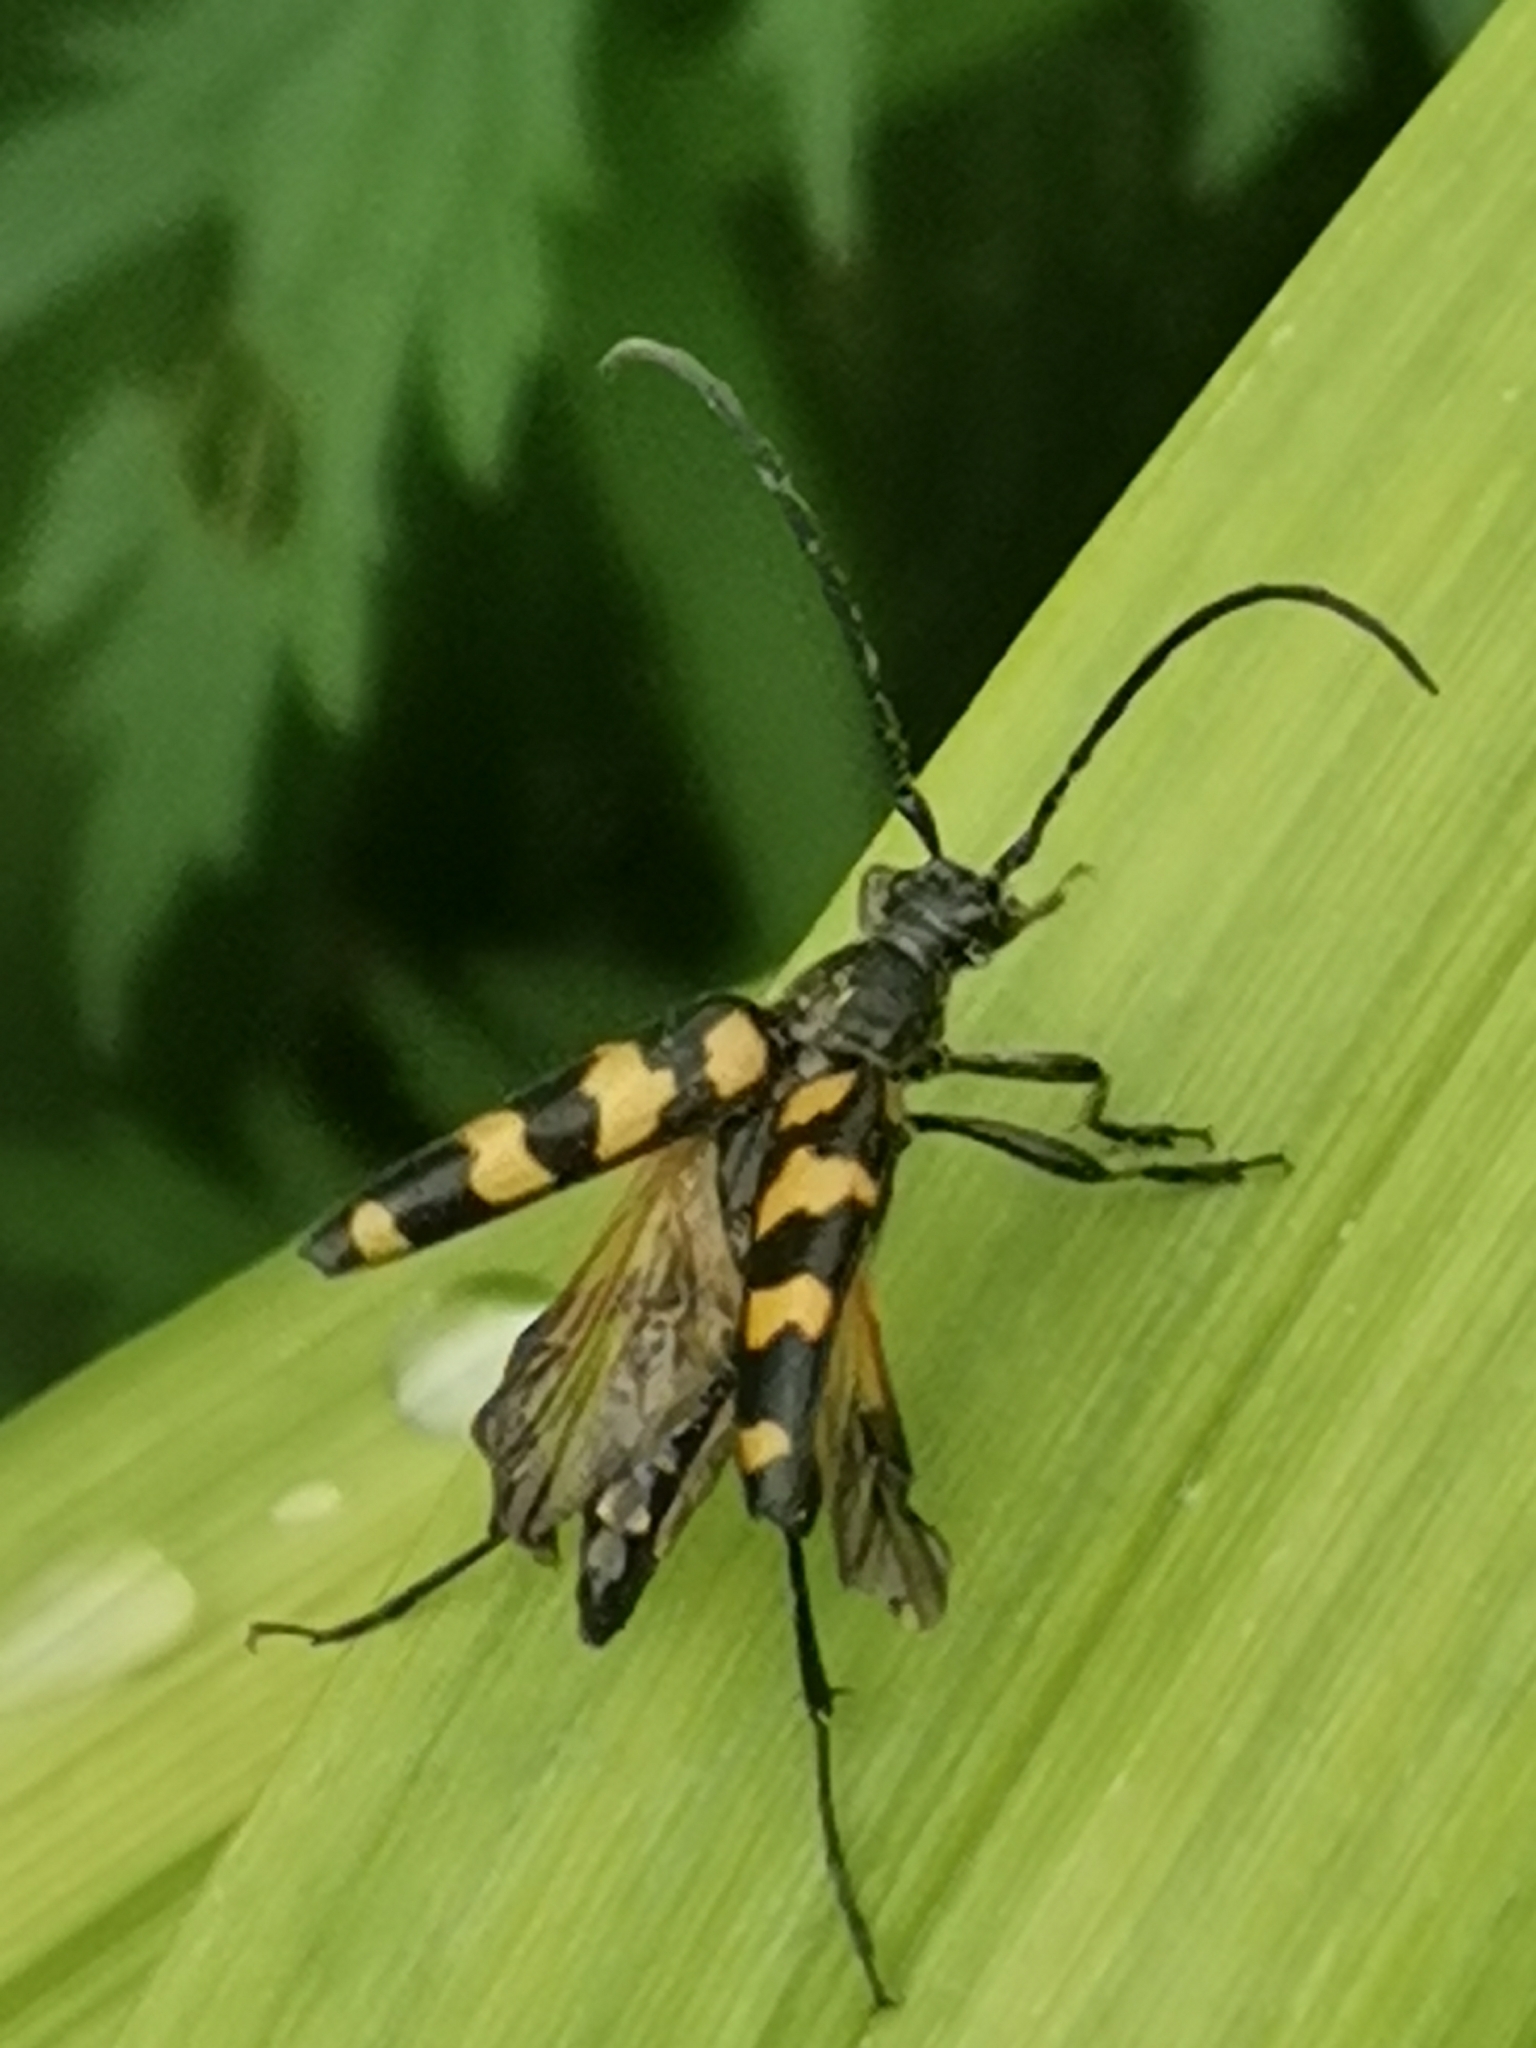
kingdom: Animalia
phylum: Arthropoda
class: Insecta
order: Coleoptera
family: Cerambycidae
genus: Leptura
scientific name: Leptura quadrifasciata
